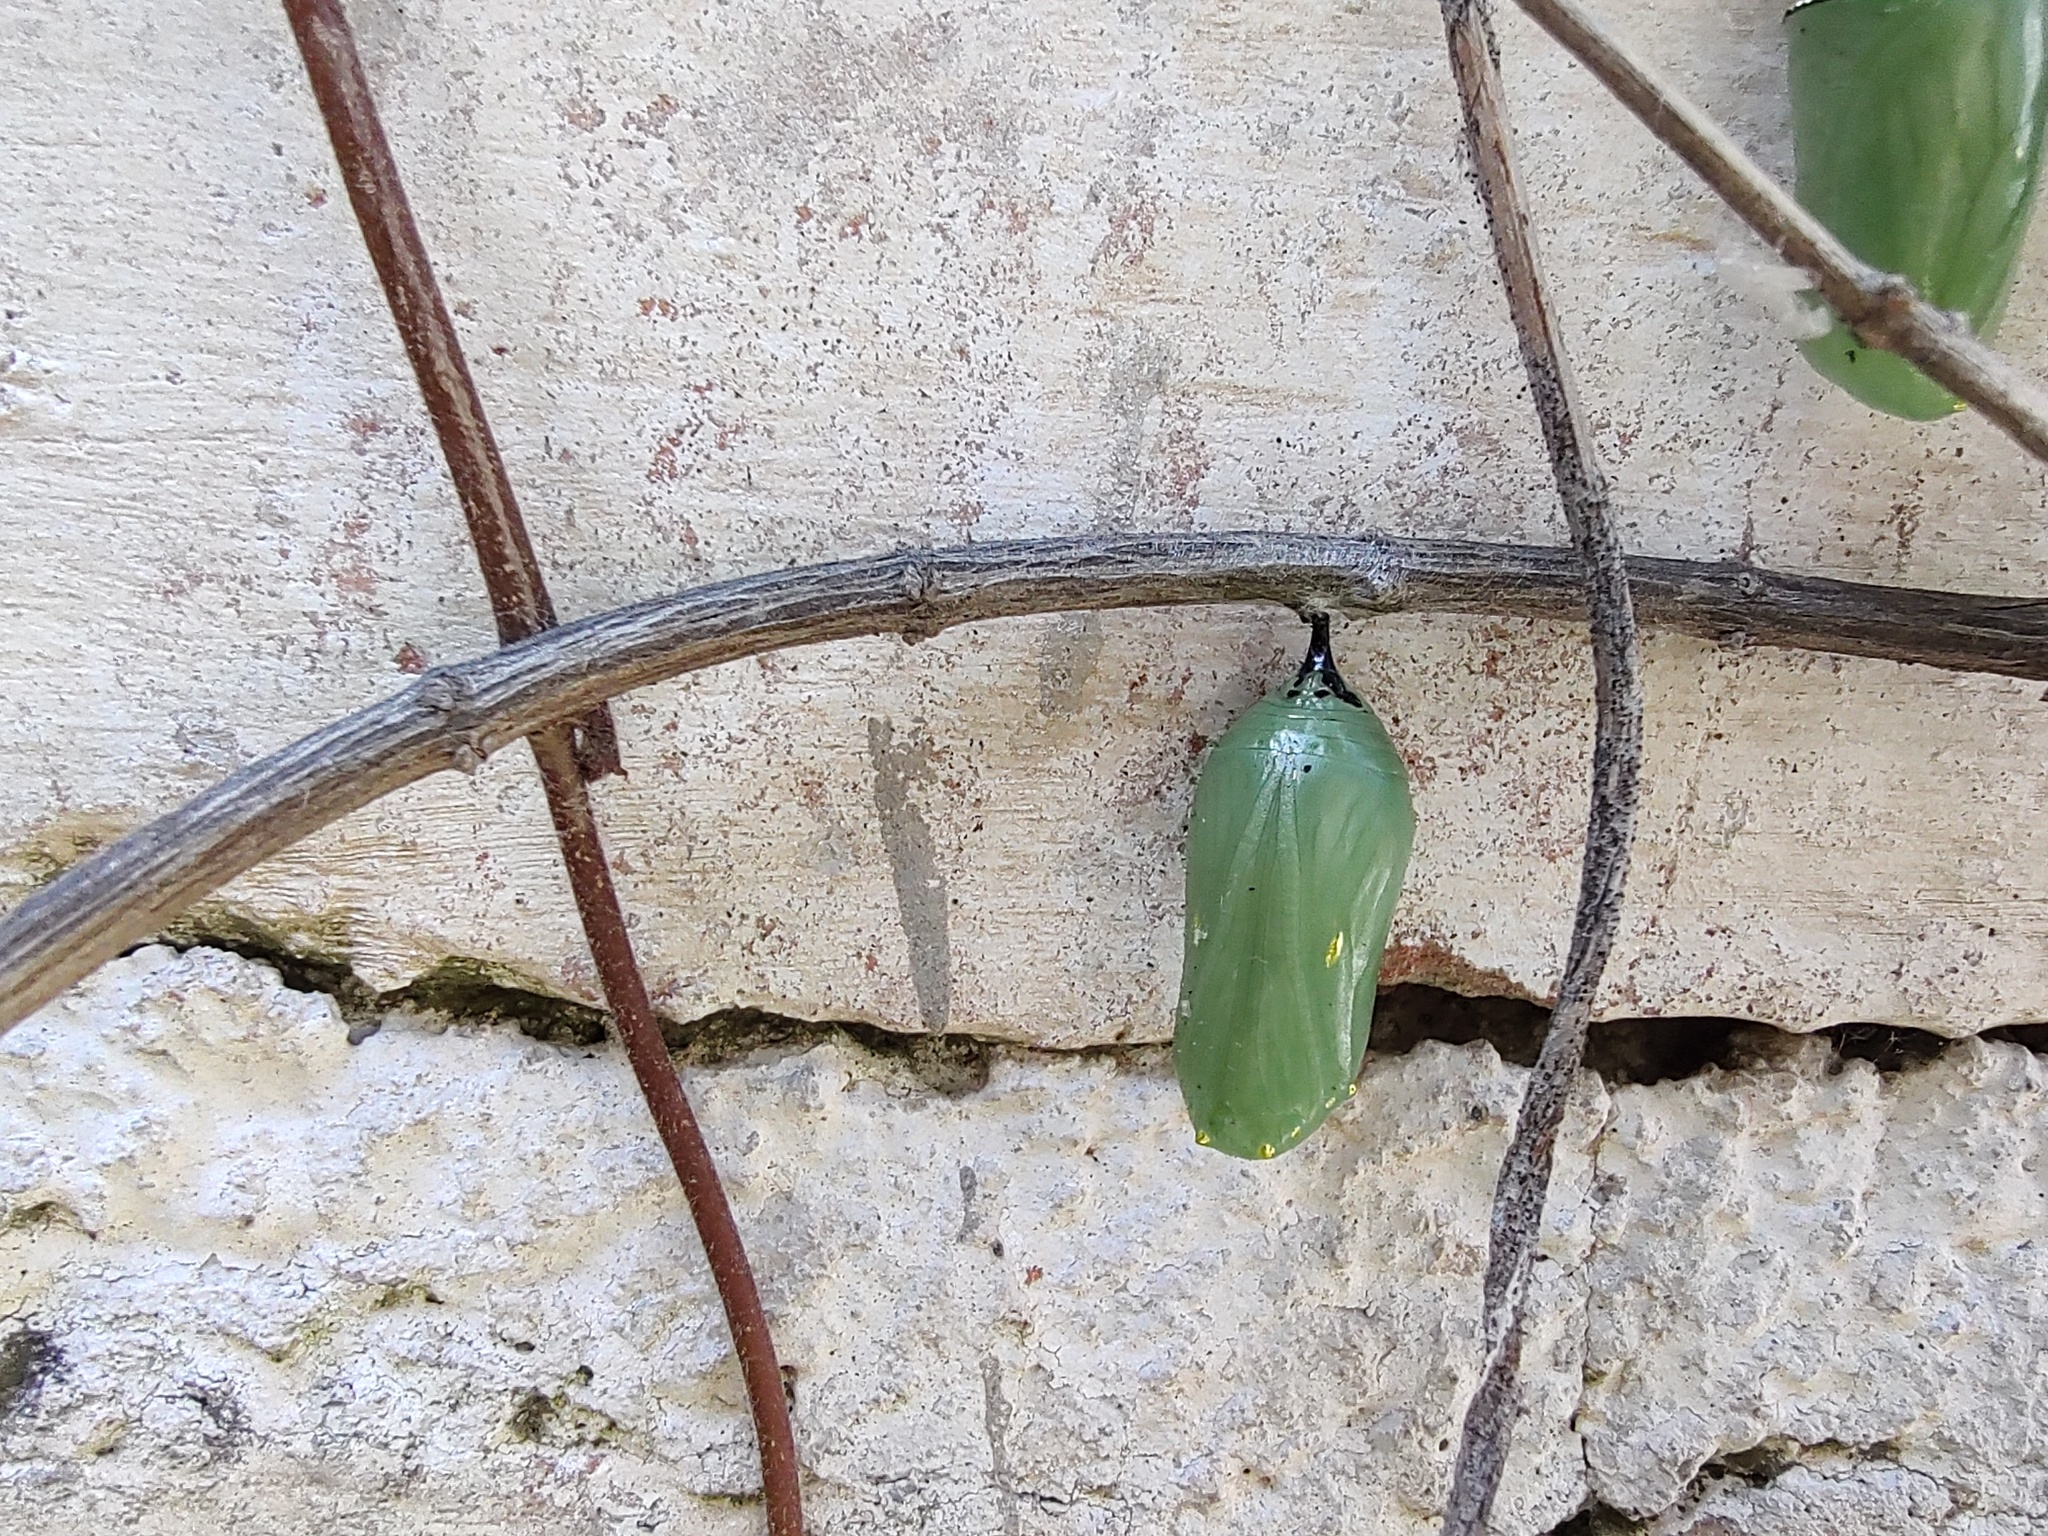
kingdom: Animalia
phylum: Arthropoda
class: Insecta
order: Lepidoptera
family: Nymphalidae
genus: Danaus
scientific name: Danaus plexippus
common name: Monarch
